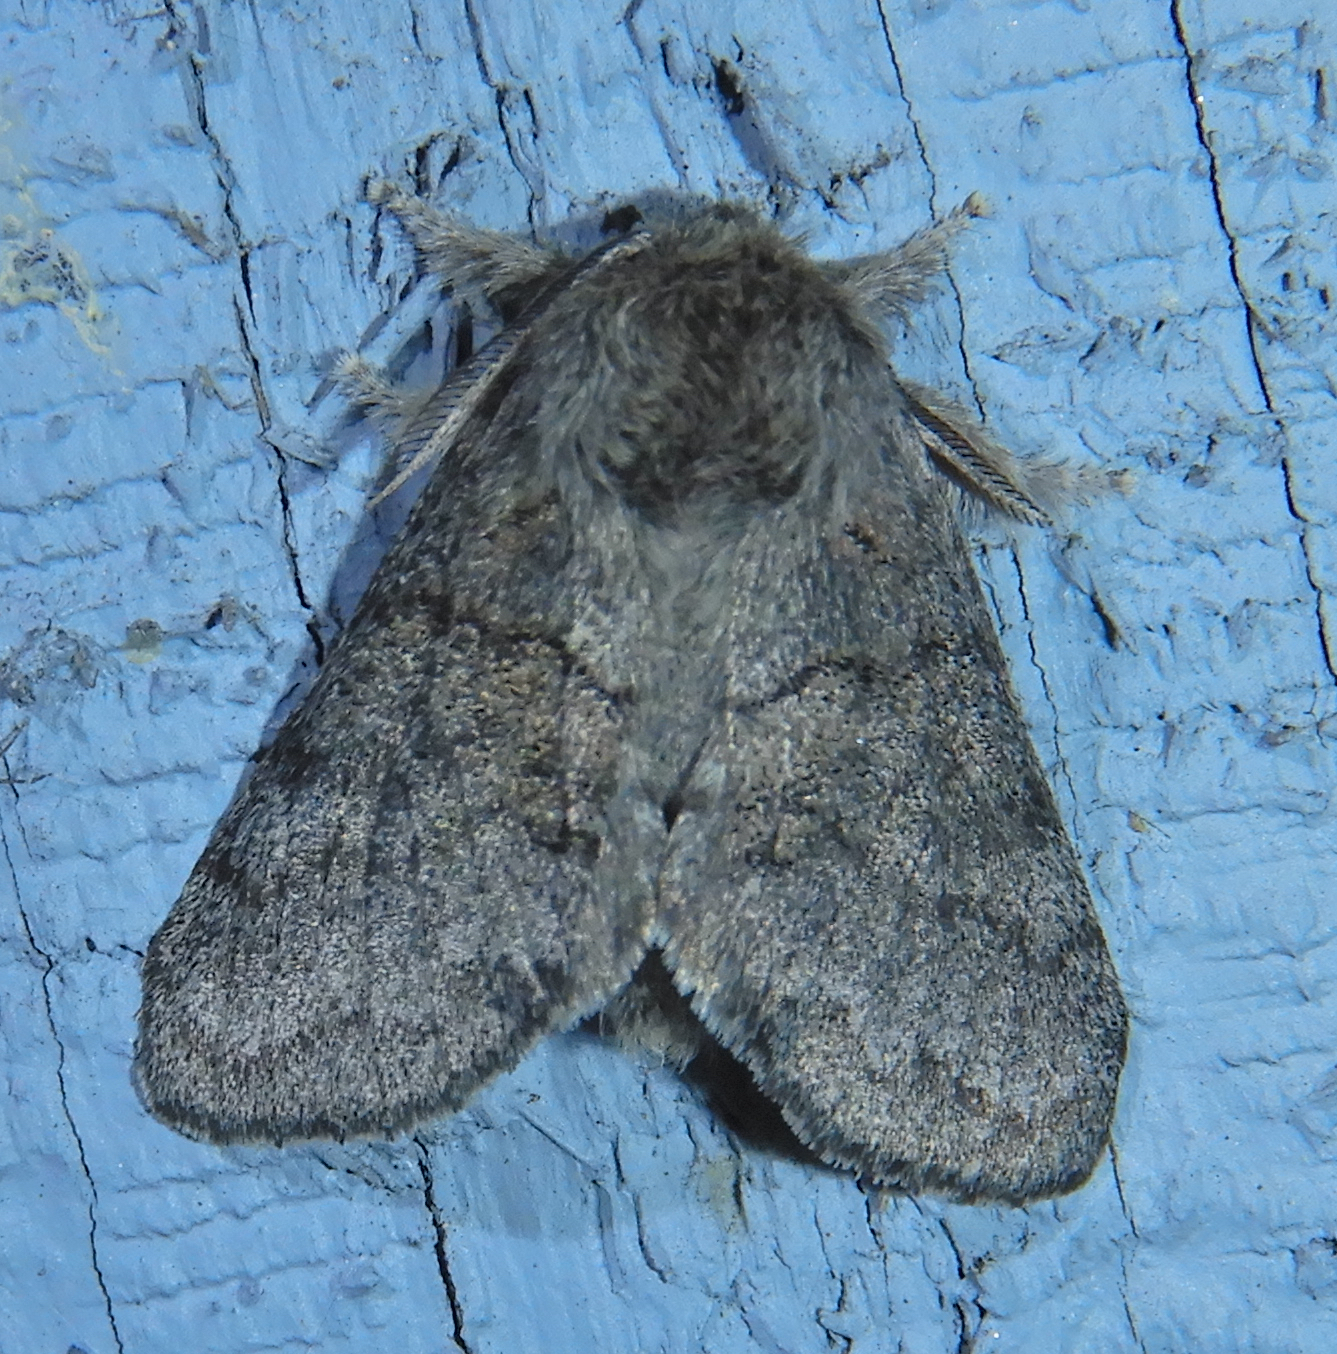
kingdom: Animalia
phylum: Arthropoda
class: Insecta
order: Lepidoptera
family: Notodontidae
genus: Gluphisia
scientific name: Gluphisia septentrionis
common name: Common gluphisia
